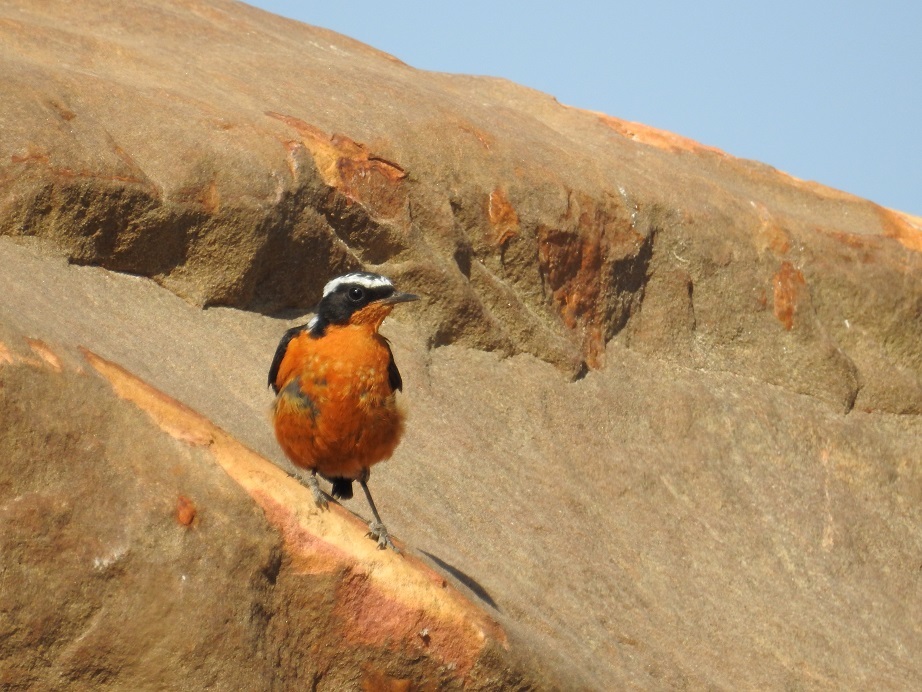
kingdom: Animalia
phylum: Chordata
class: Aves
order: Passeriformes
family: Muscicapidae
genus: Phoenicurus
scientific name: Phoenicurus moussieri
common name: Moussier's redstart
